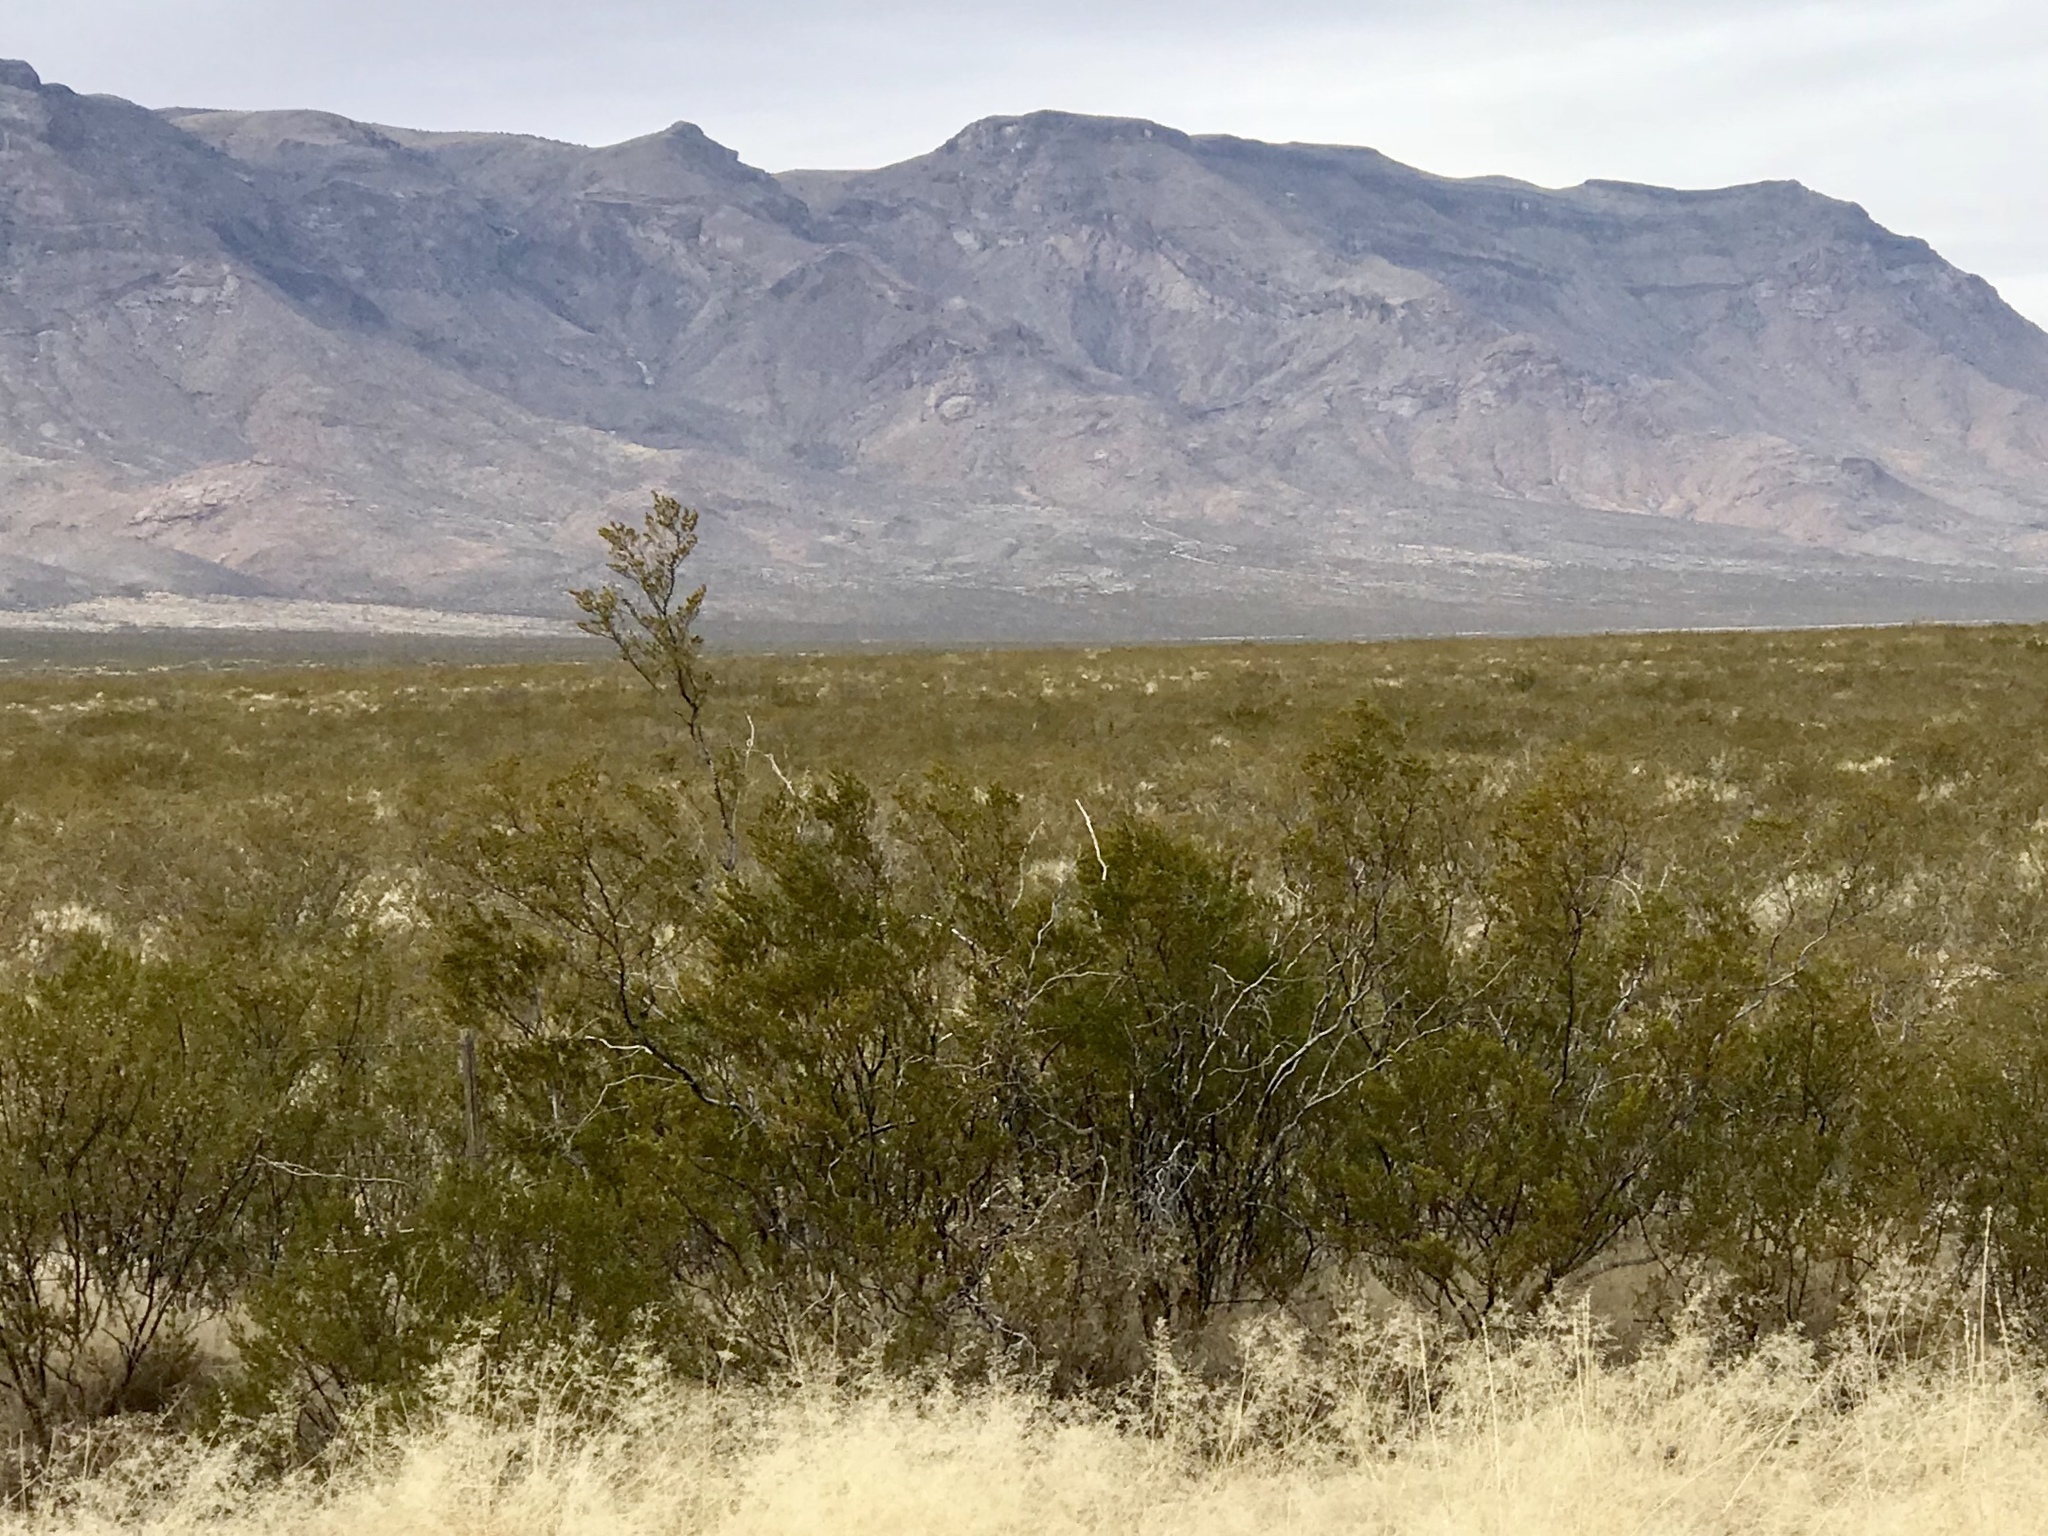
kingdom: Plantae
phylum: Tracheophyta
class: Magnoliopsida
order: Zygophyllales
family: Zygophyllaceae
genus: Larrea
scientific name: Larrea tridentata
